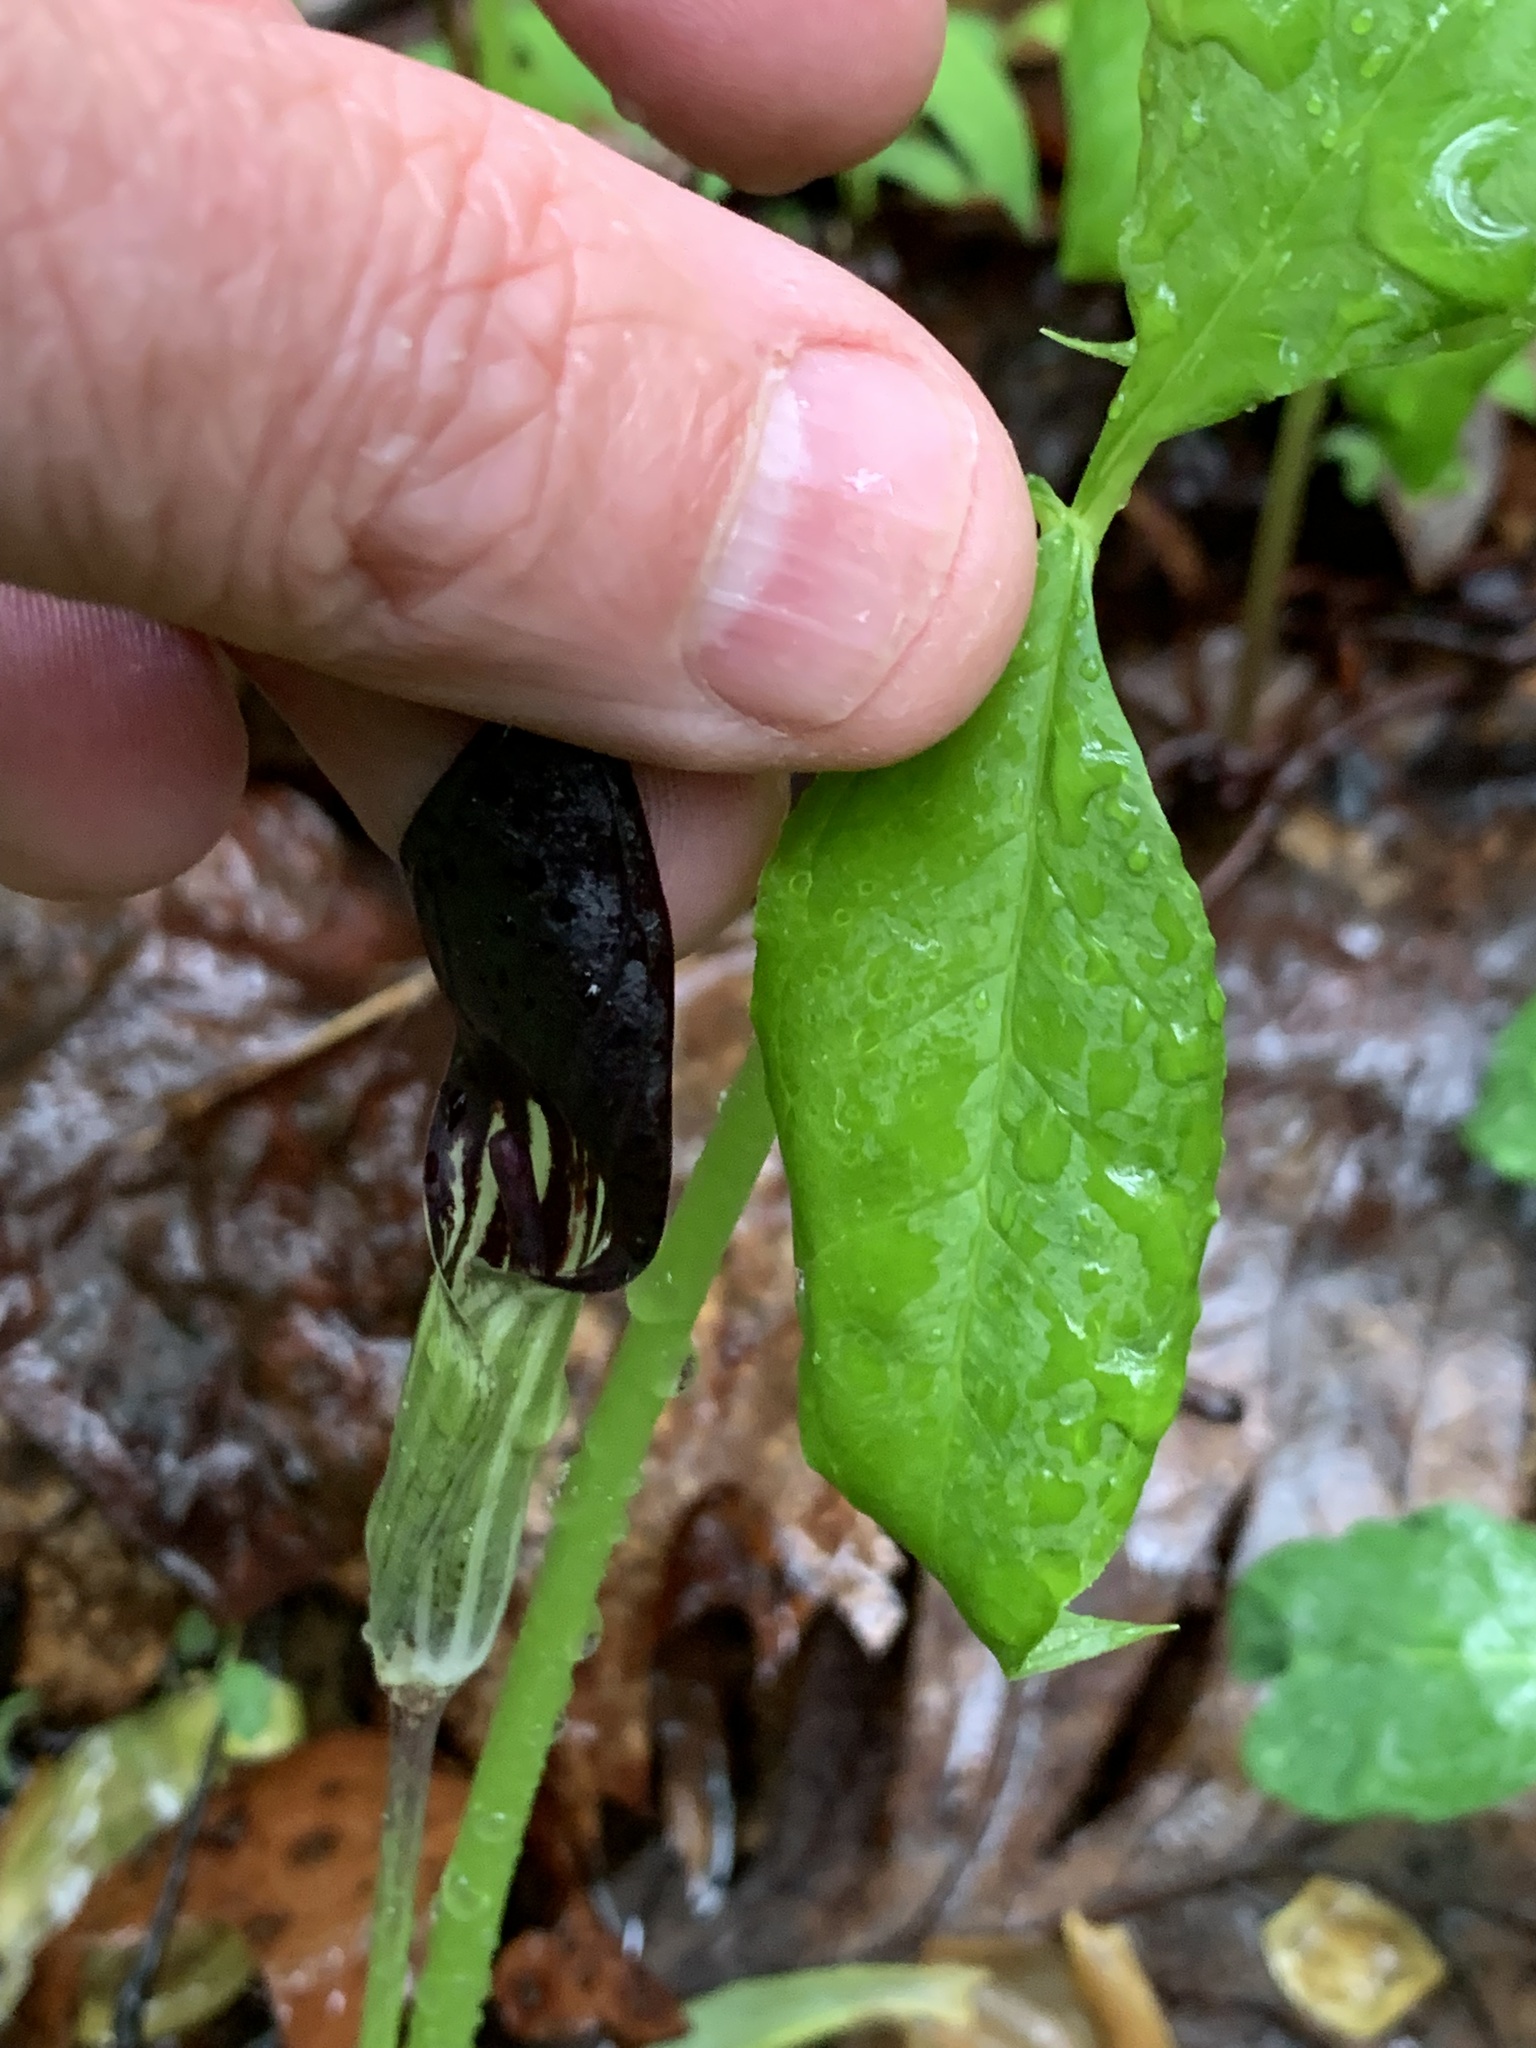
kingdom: Plantae
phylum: Tracheophyta
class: Liliopsida
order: Alismatales
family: Araceae
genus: Arisaema
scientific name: Arisaema pusillum
